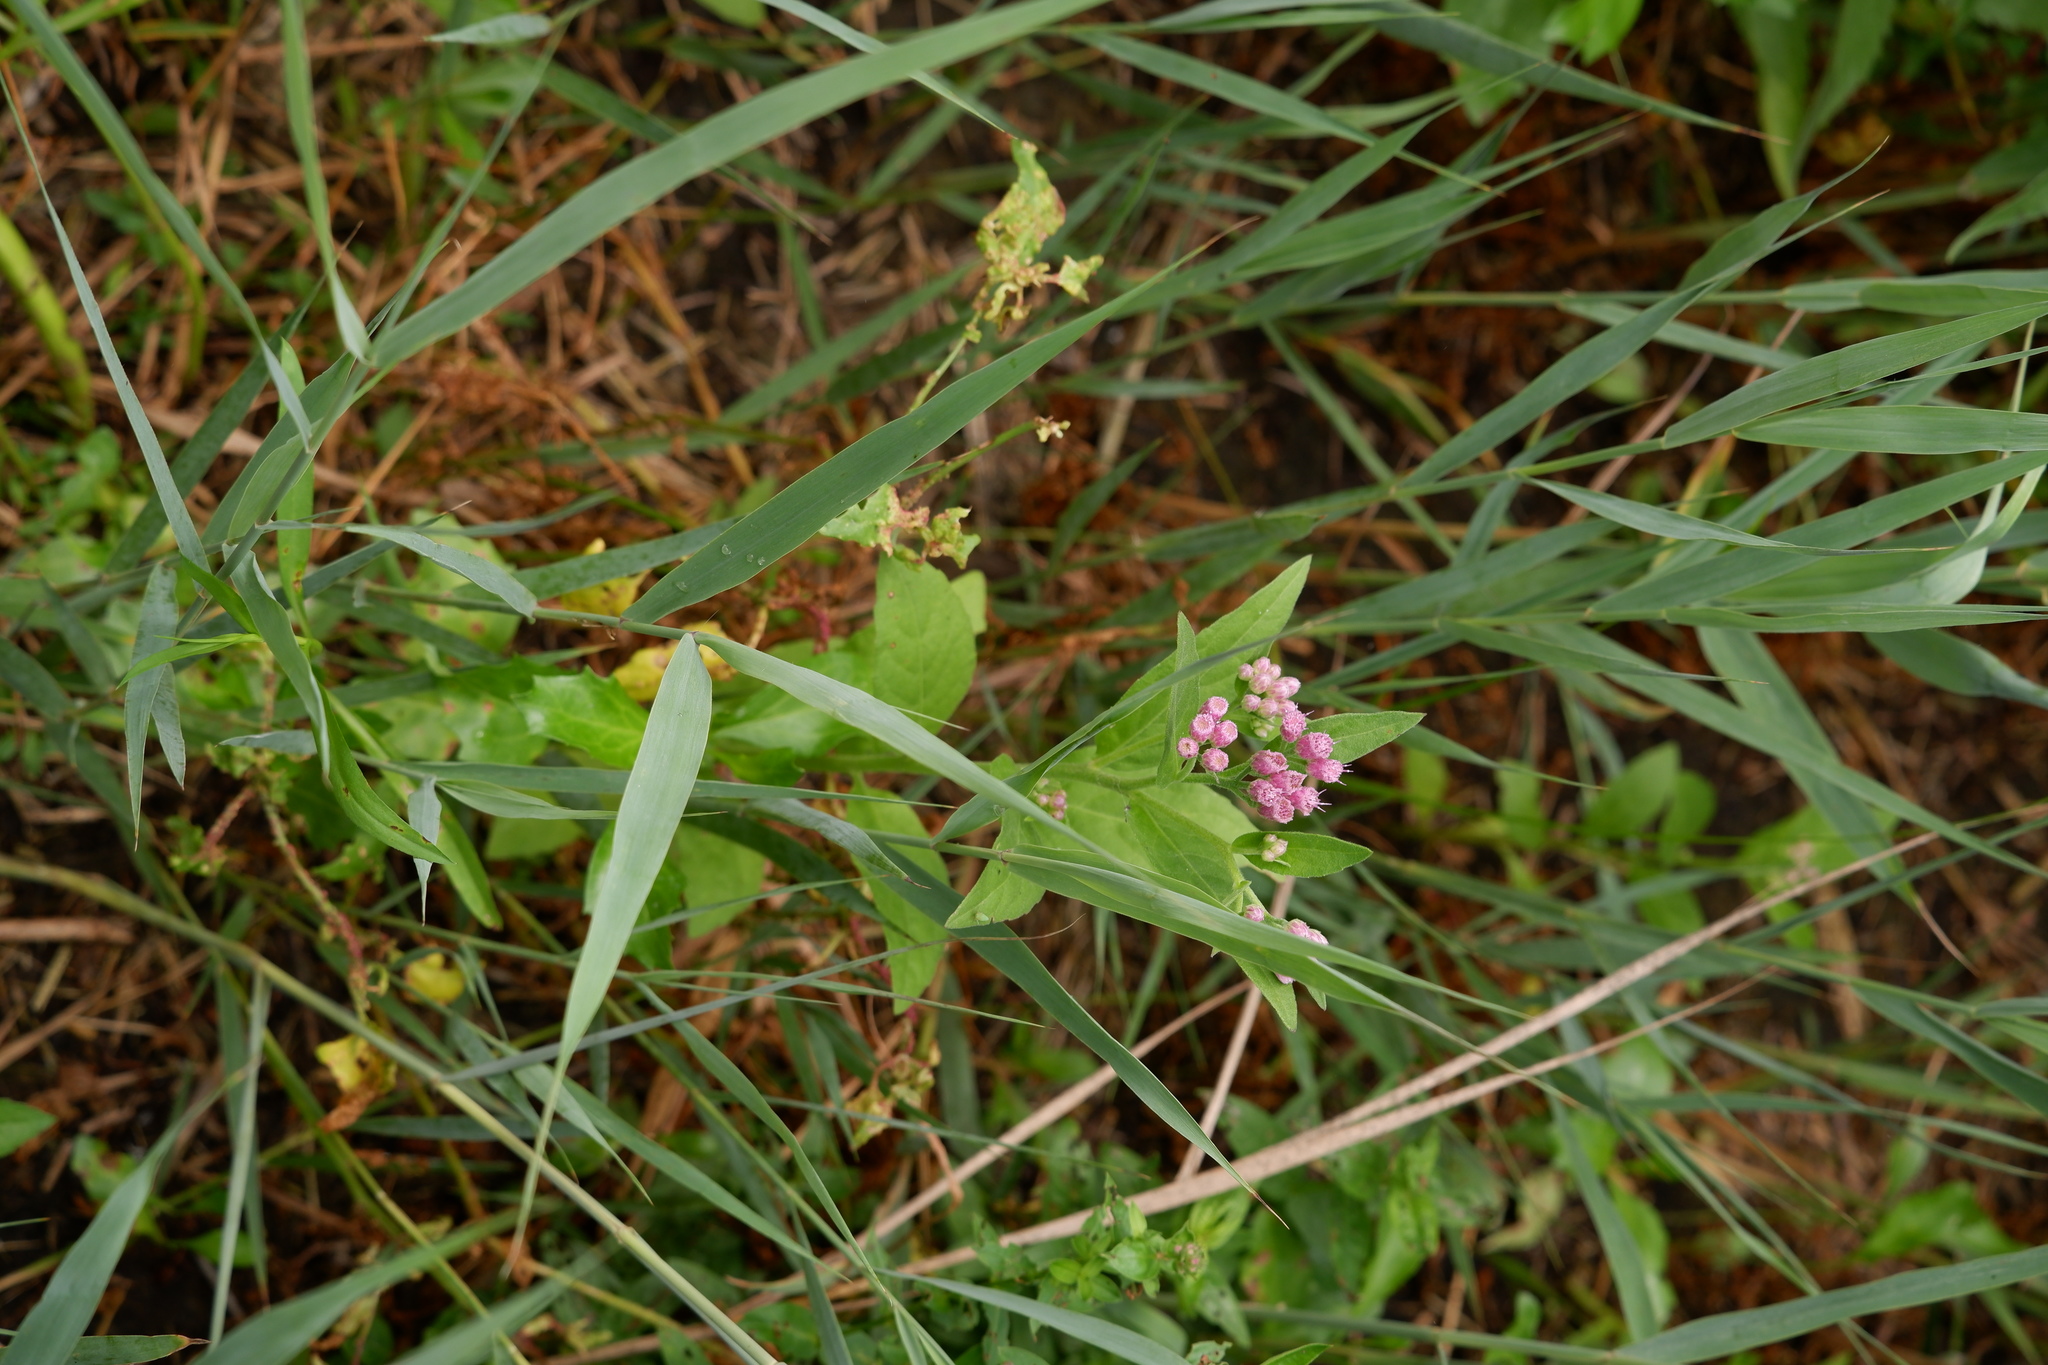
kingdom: Plantae
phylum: Tracheophyta
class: Magnoliopsida
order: Asterales
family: Asteraceae
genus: Pluchea
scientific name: Pluchea odorata
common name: Saltmarsh fleabane
